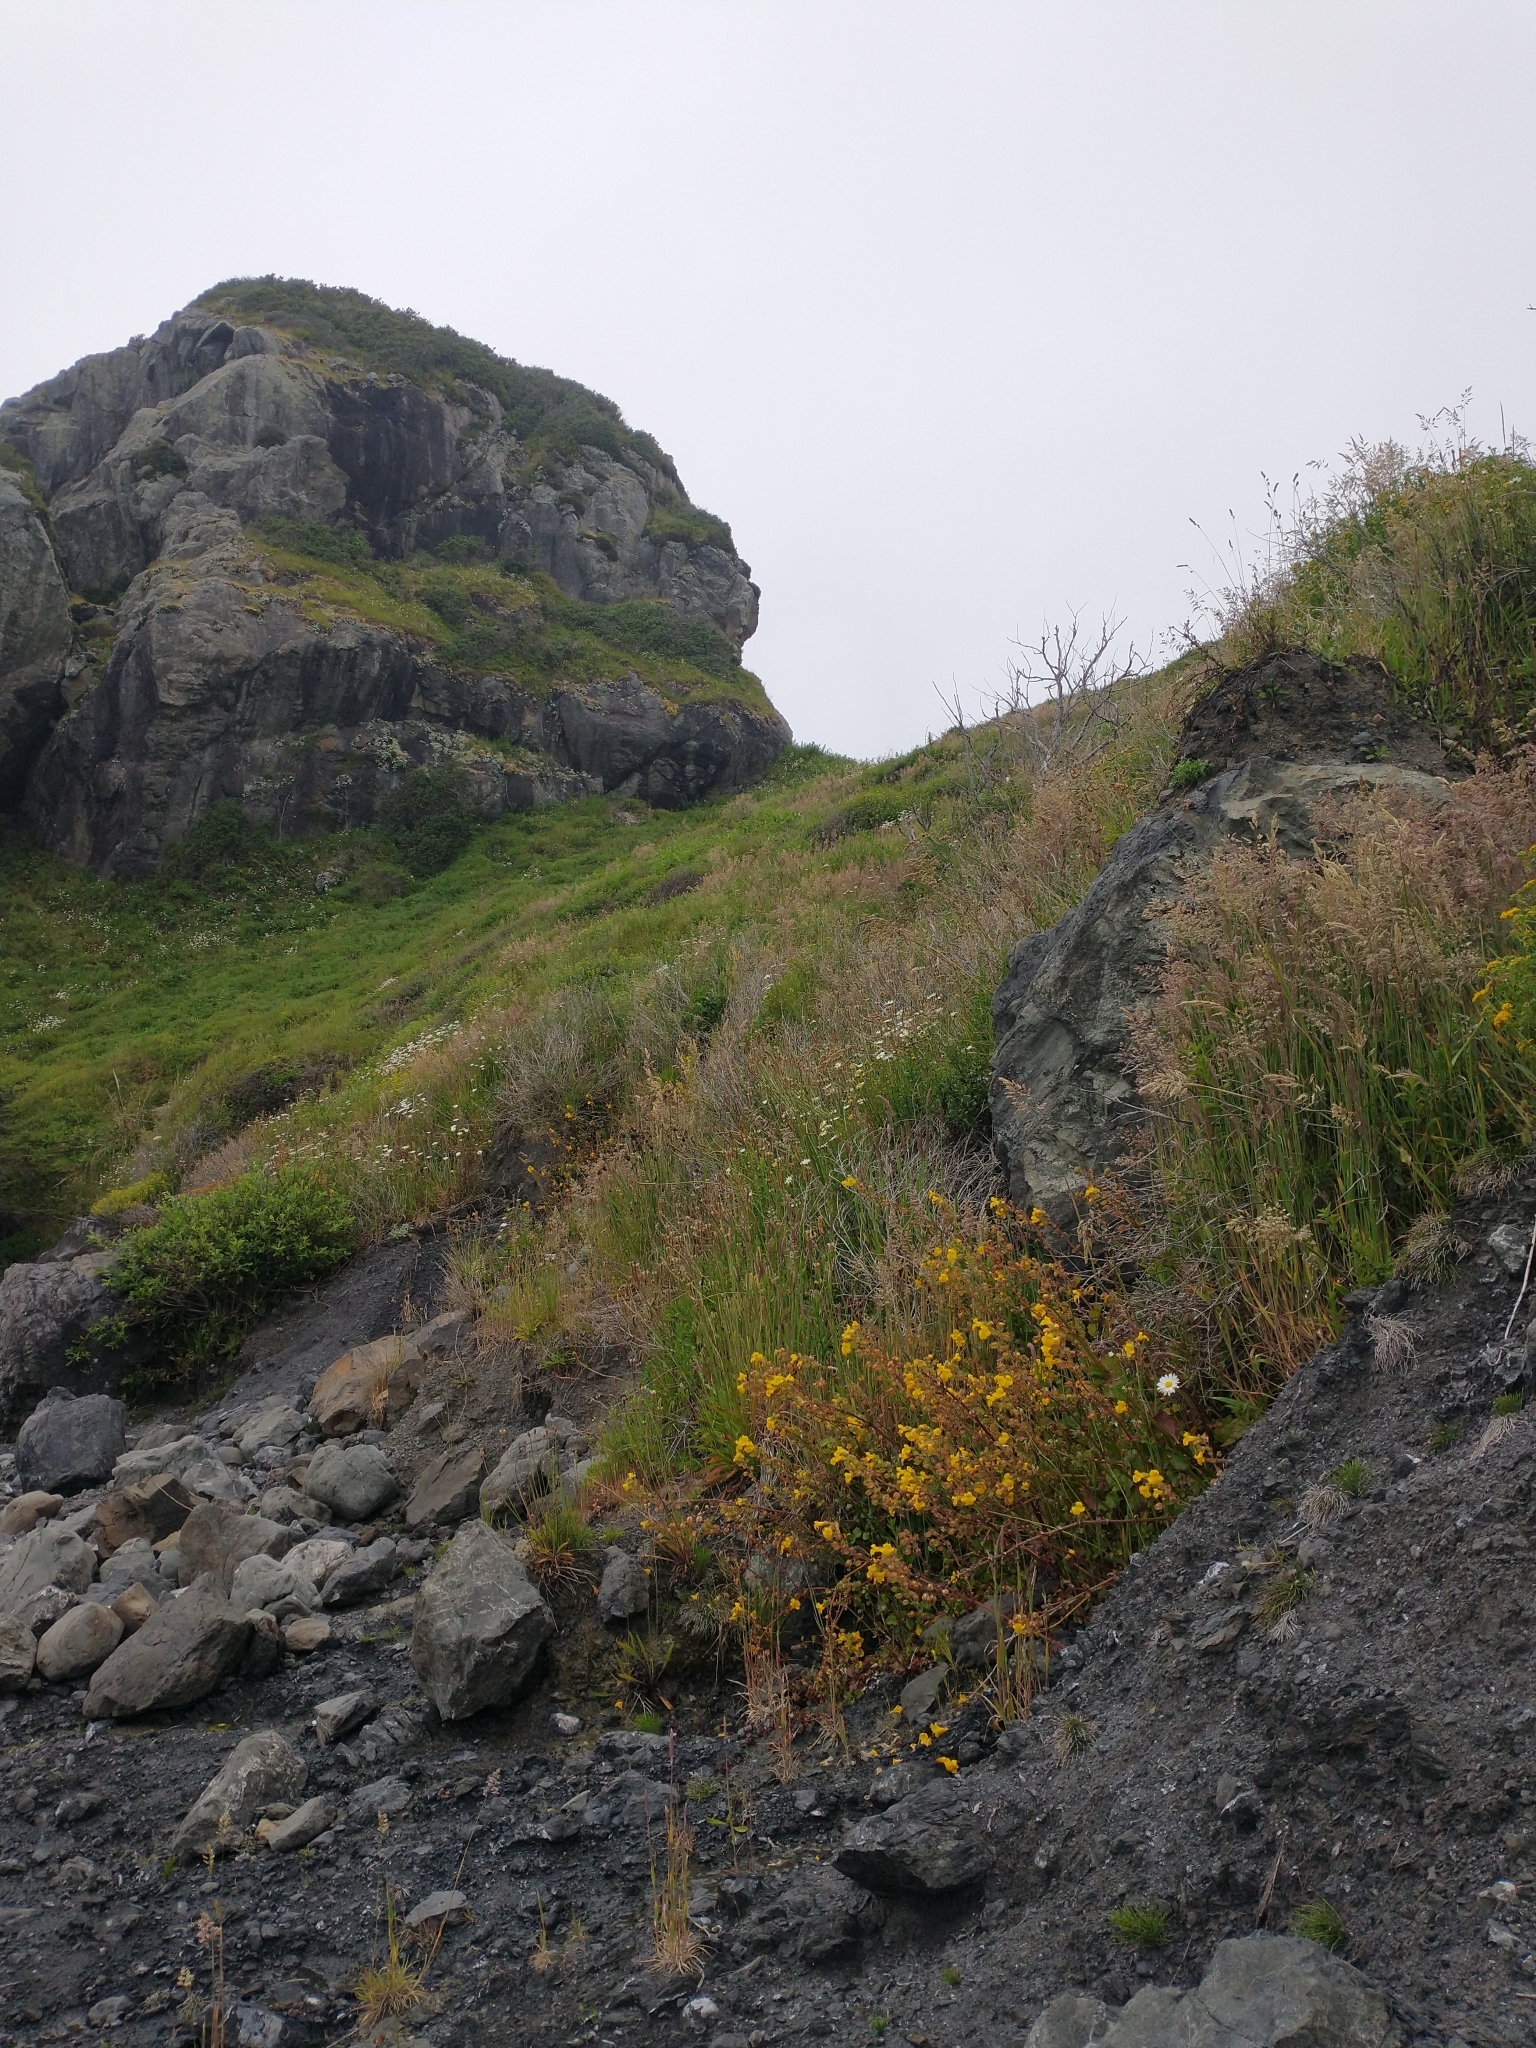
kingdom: Plantae
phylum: Tracheophyta
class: Magnoliopsida
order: Lamiales
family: Phrymaceae
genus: Erythranthe
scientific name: Erythranthe grandis
